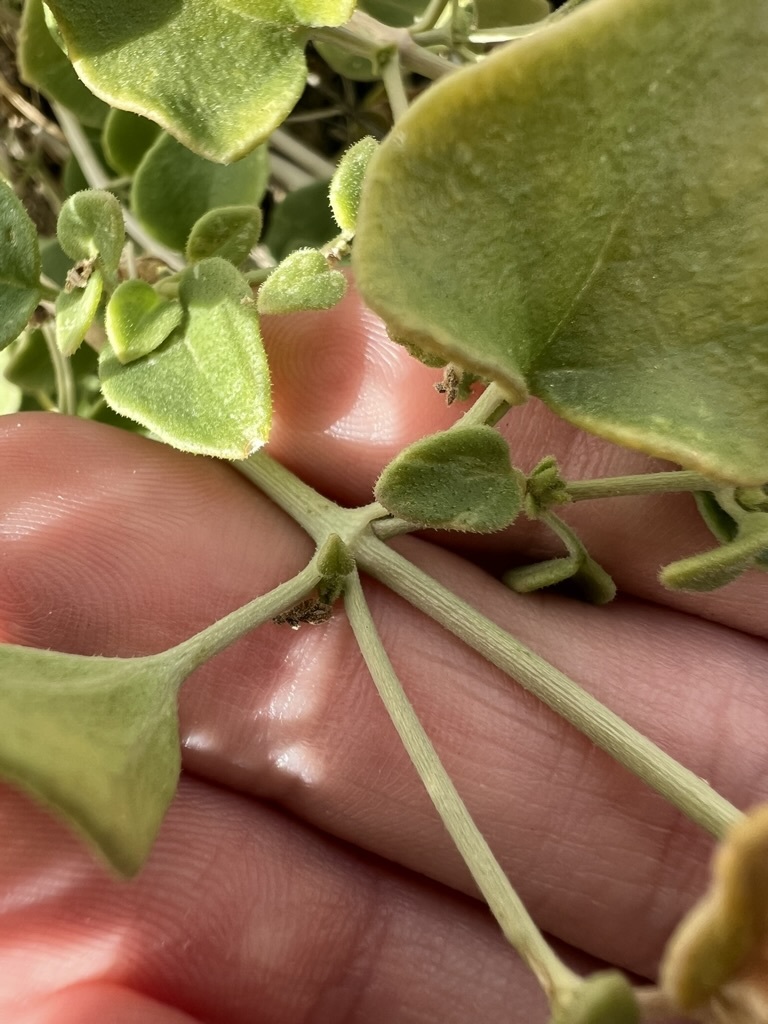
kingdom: Plantae
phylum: Tracheophyta
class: Magnoliopsida
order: Caryophyllales
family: Nyctaginaceae
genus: Mirabilis
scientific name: Mirabilis laevis
